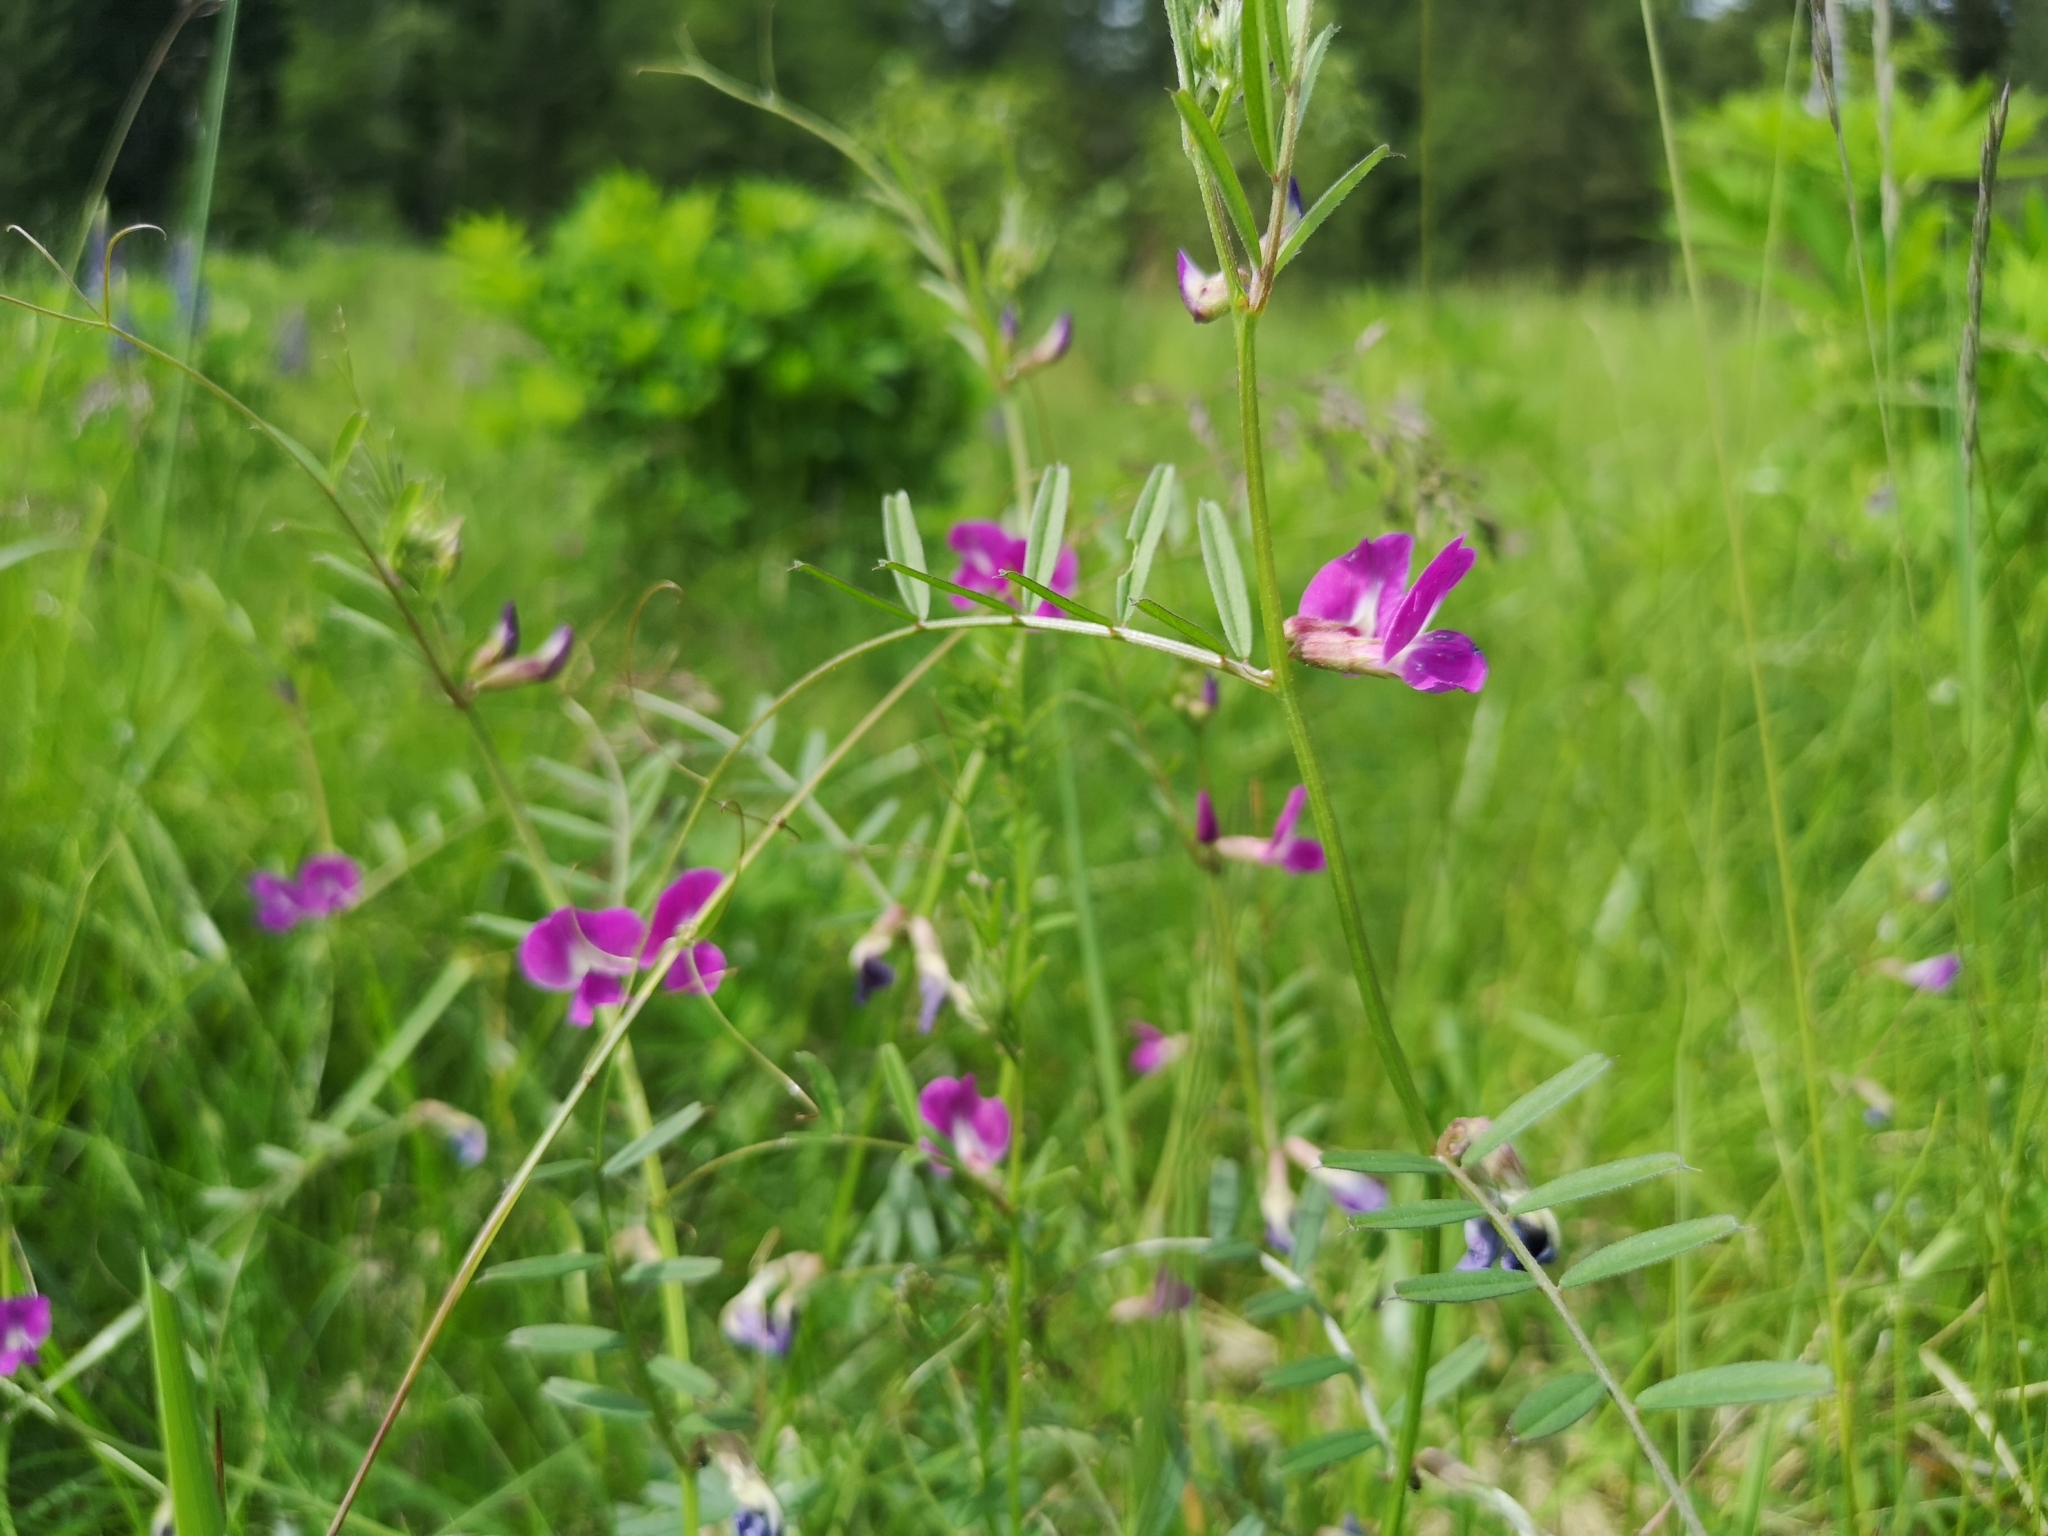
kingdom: Plantae
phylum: Tracheophyta
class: Magnoliopsida
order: Fabales
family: Fabaceae
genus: Vicia
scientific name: Vicia sativa
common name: Garden vetch
